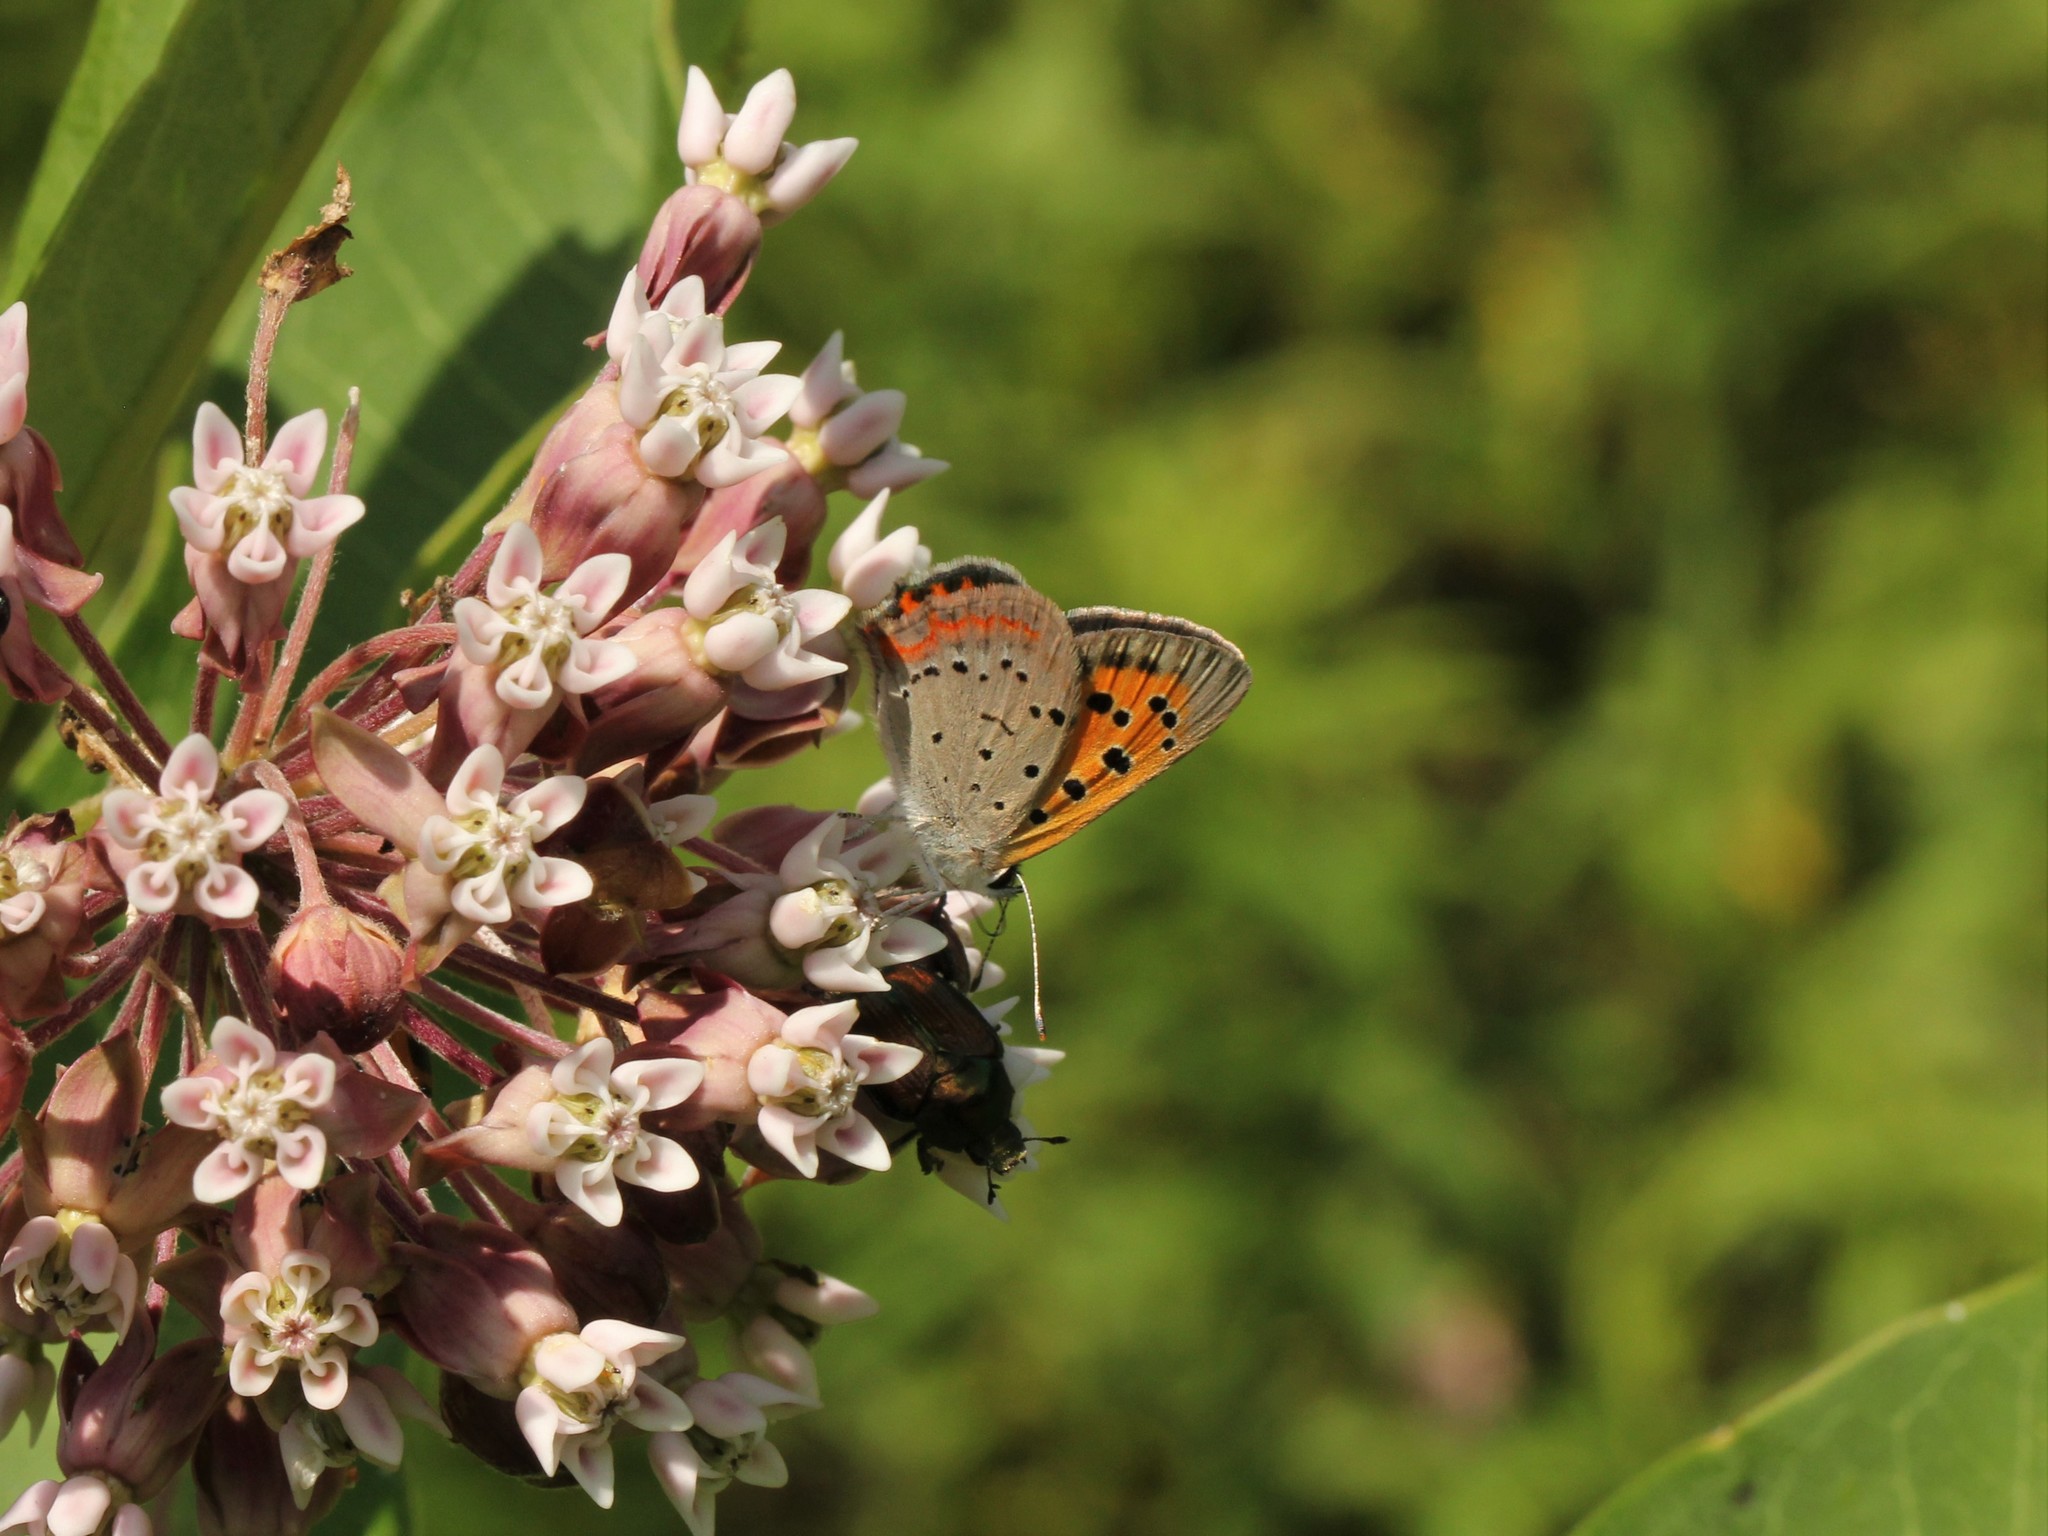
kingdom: Animalia
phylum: Arthropoda
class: Insecta
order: Lepidoptera
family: Lycaenidae
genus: Lycaena
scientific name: Lycaena hypophlaeas
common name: American copper
